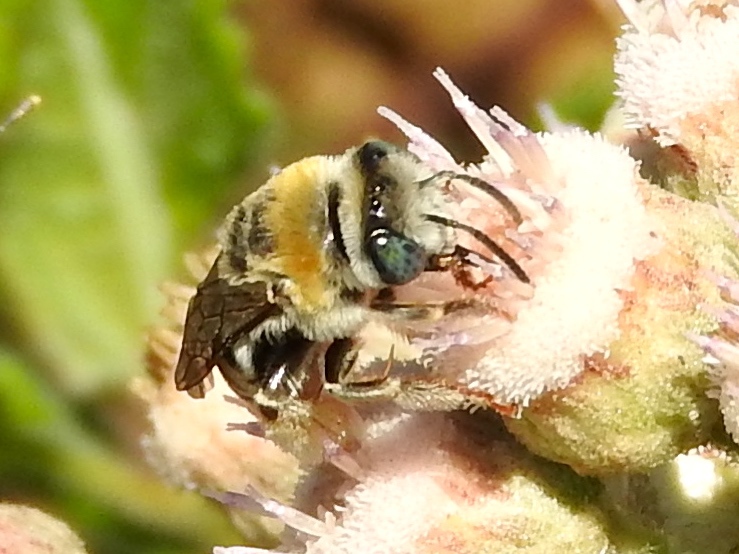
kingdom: Animalia
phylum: Arthropoda
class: Insecta
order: Hymenoptera
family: Apidae
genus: Melissodes
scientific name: Melissodes
